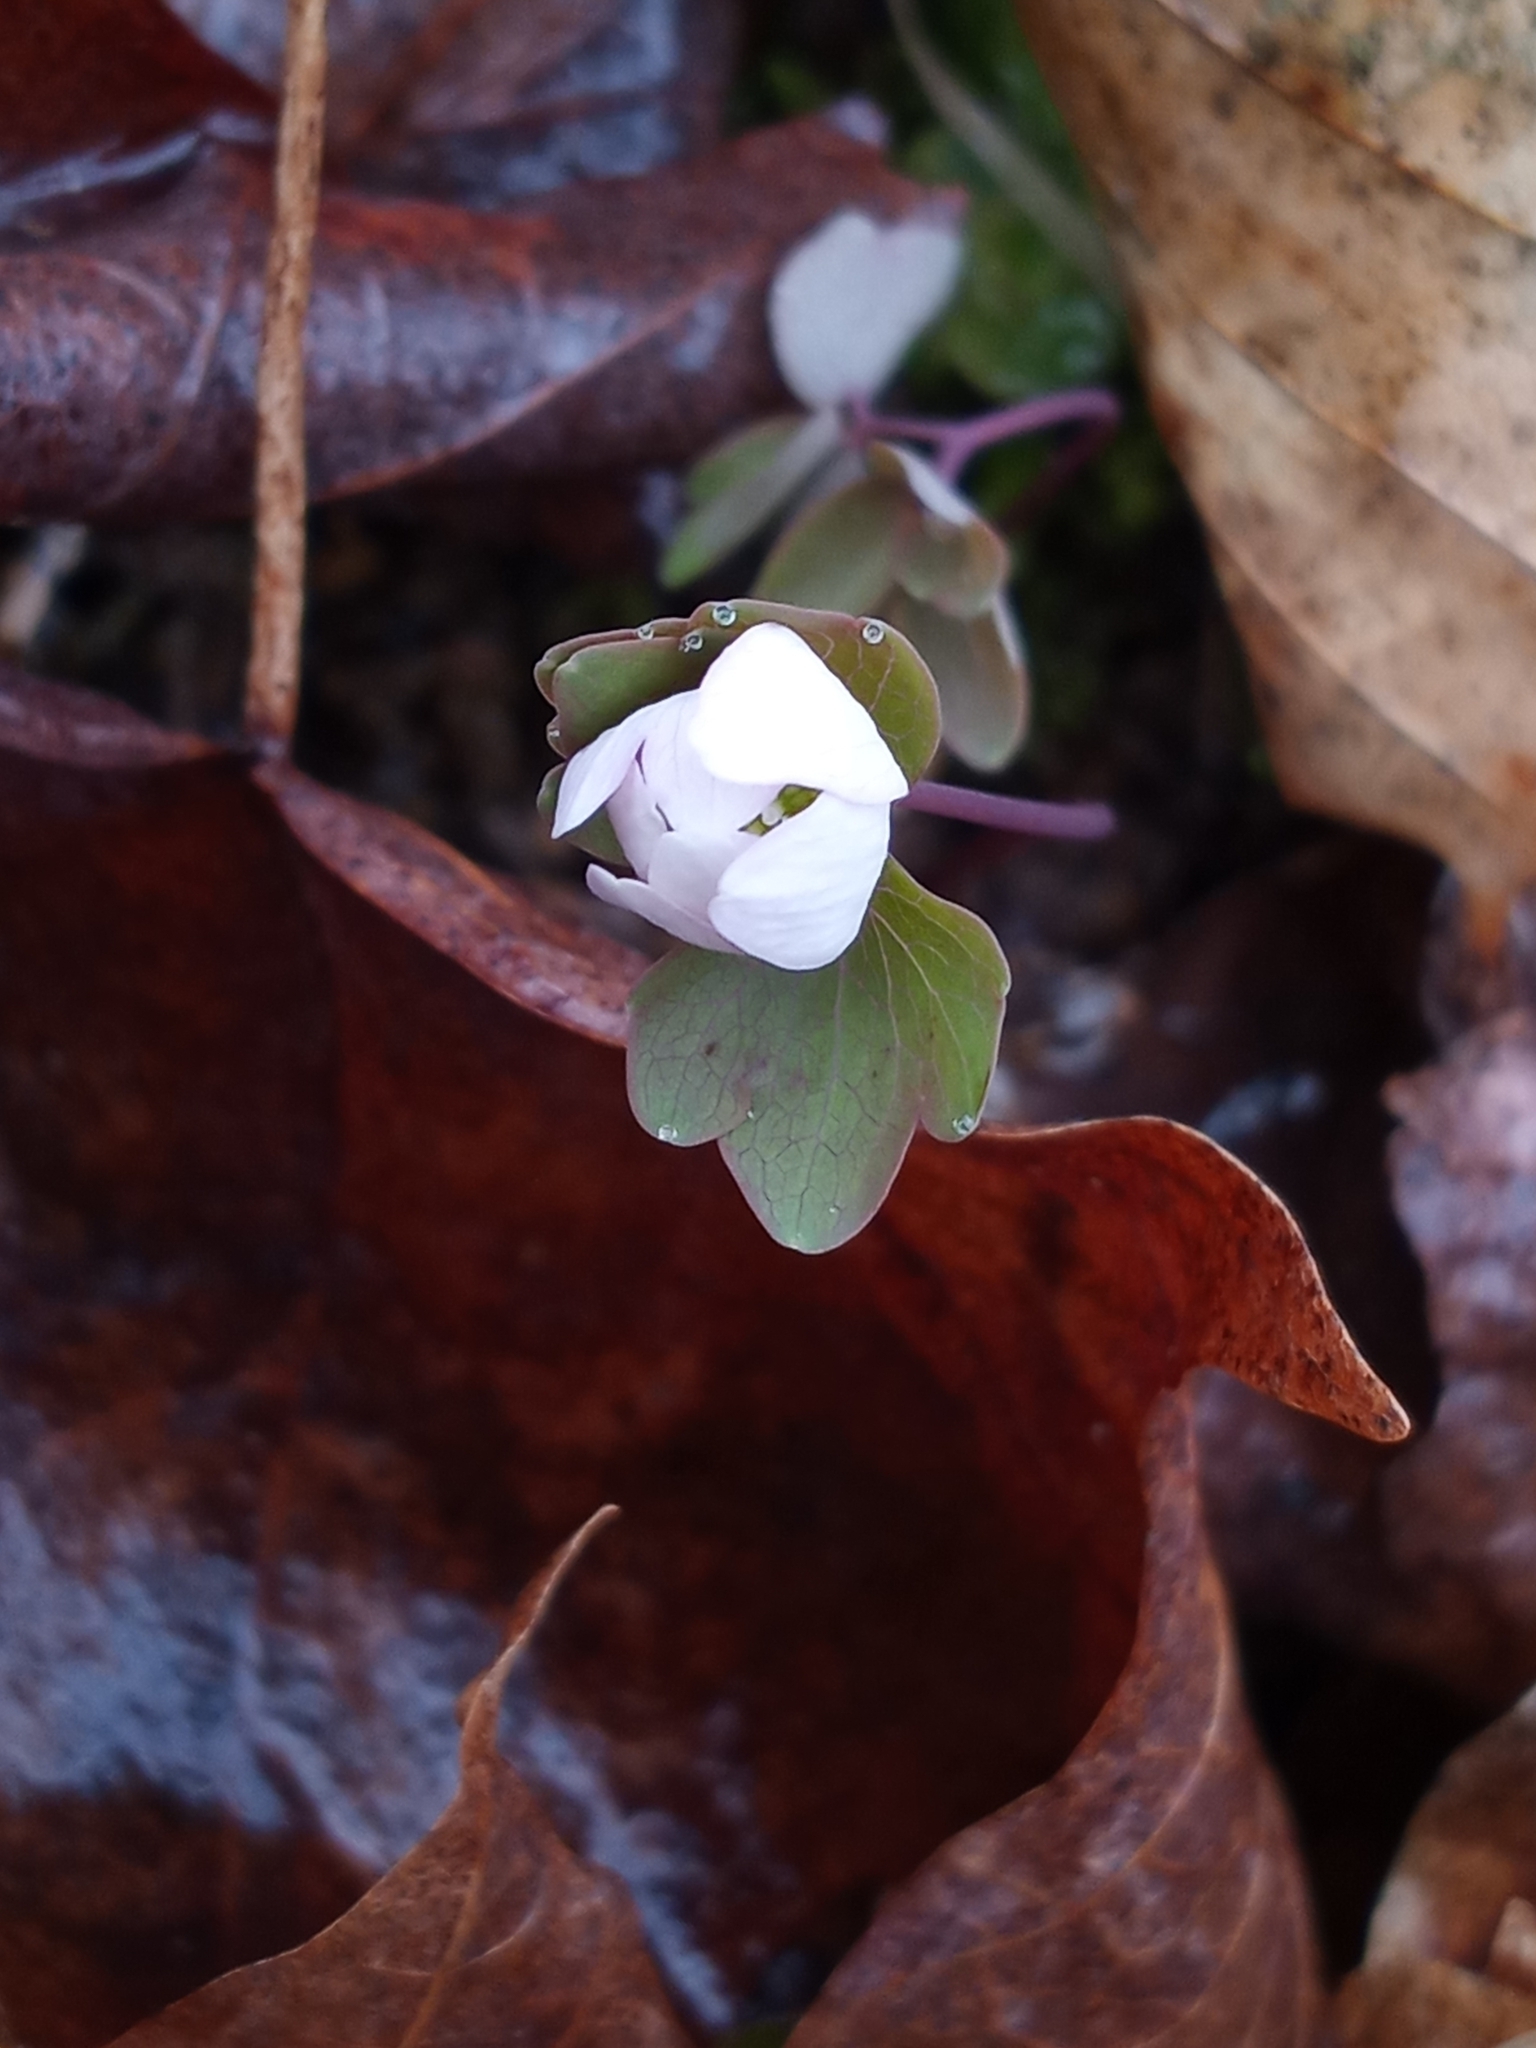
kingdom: Plantae
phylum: Tracheophyta
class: Magnoliopsida
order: Ranunculales
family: Ranunculaceae
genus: Thalictrum
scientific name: Thalictrum thalictroides
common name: Rue-anemone
